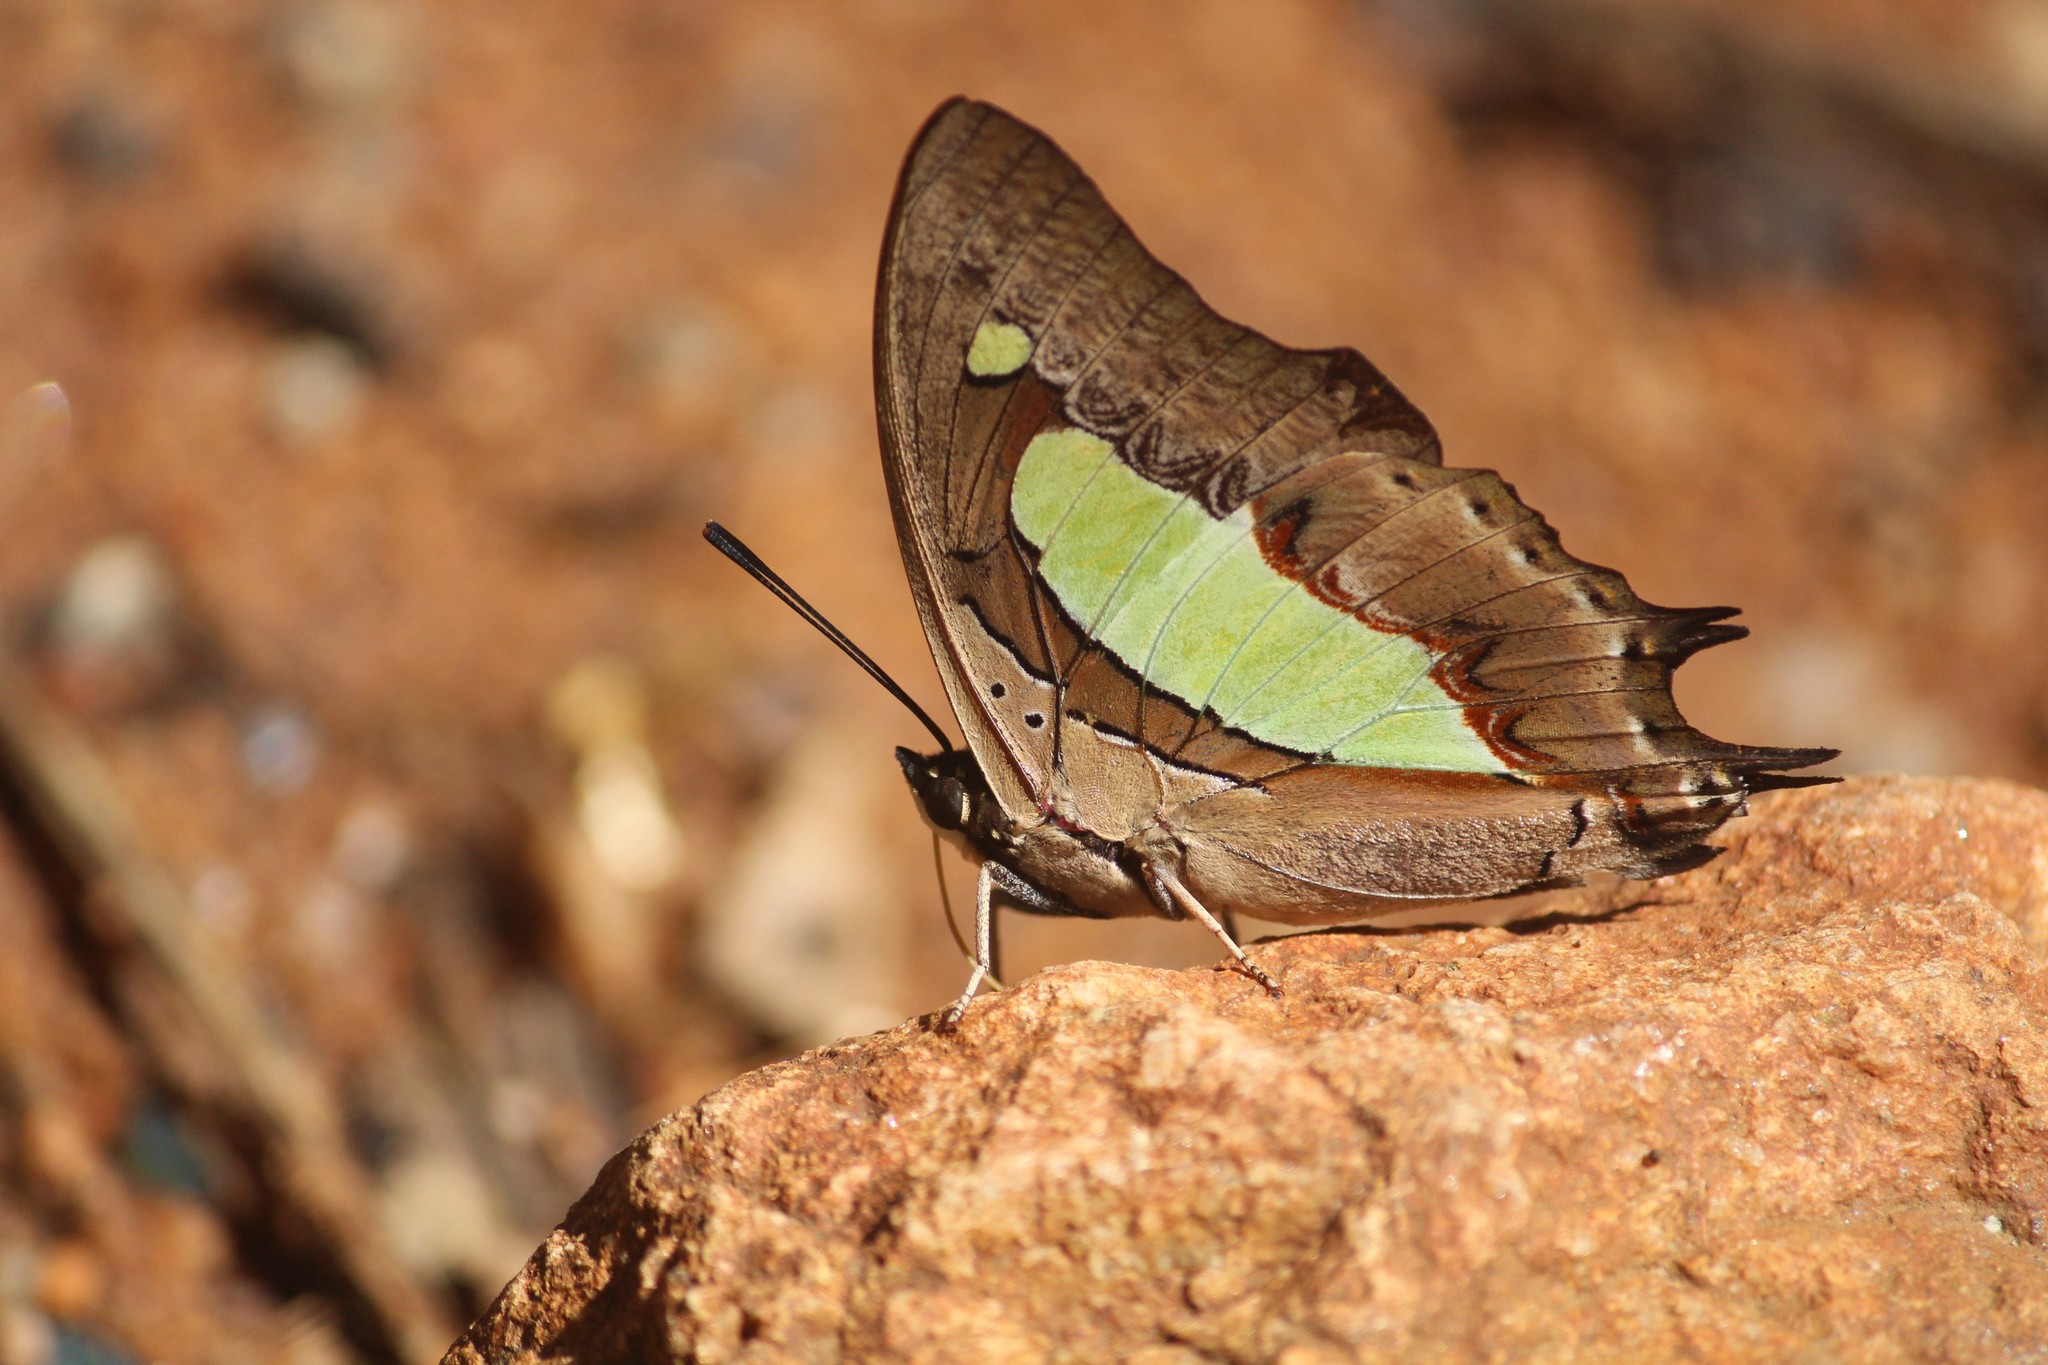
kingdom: Animalia
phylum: Arthropoda
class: Insecta
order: Lepidoptera
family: Nymphalidae
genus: Polyura
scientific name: Polyura
